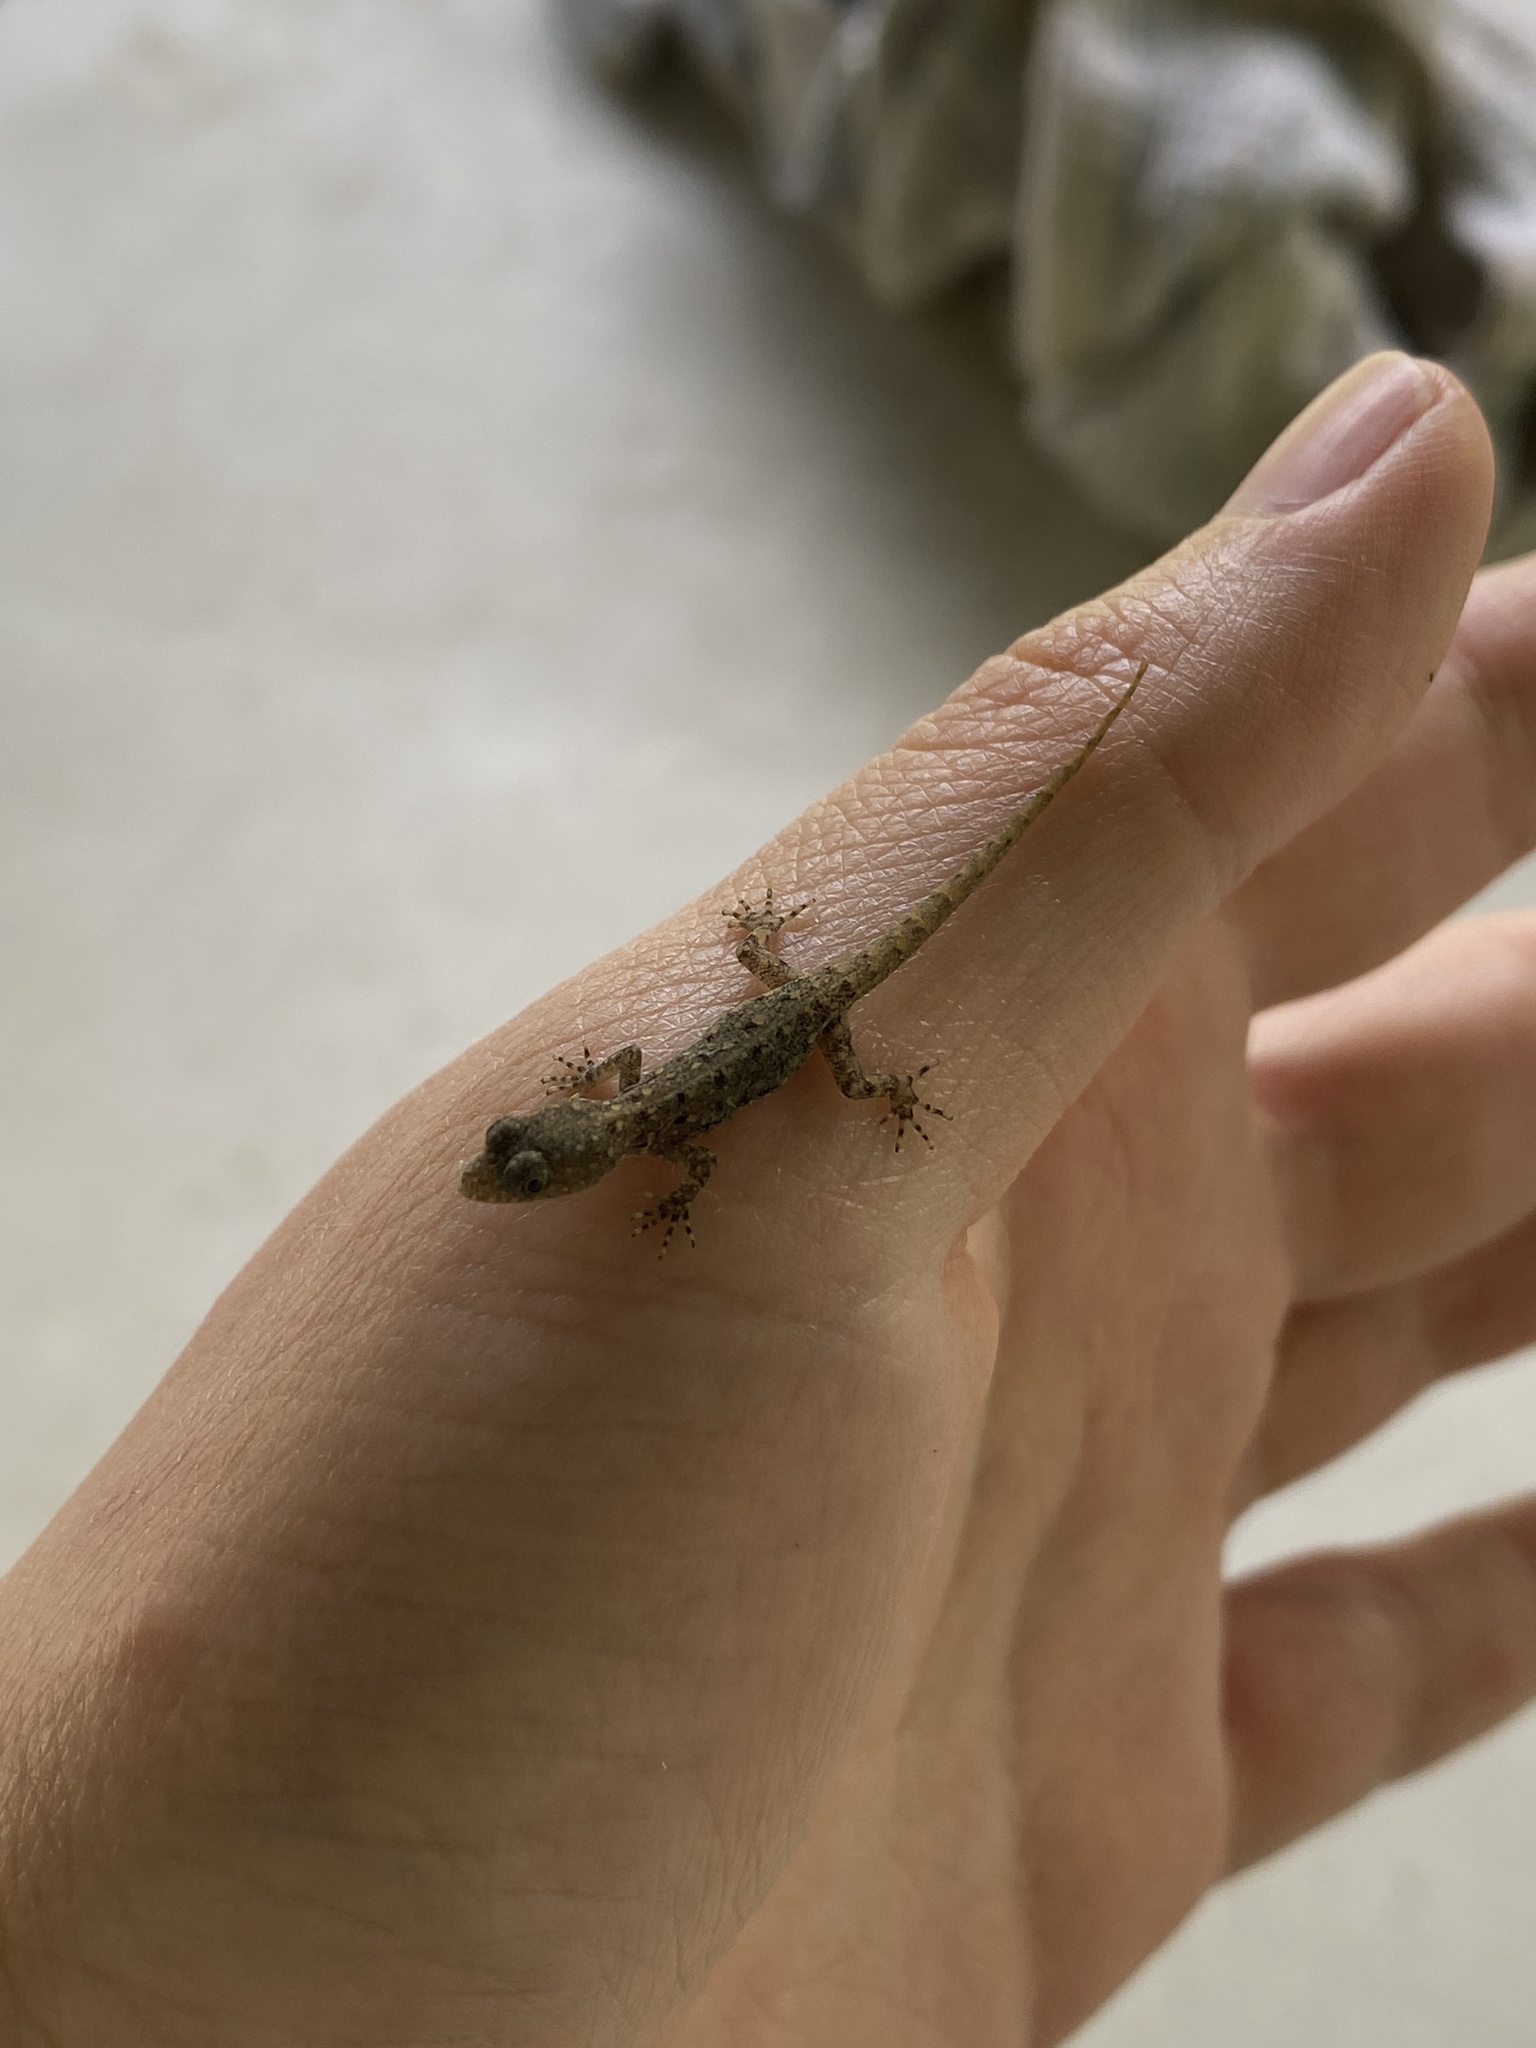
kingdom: Animalia
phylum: Chordata
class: Squamata
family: Sphaerodactylidae
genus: Gonatodes
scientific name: Gonatodes vittatus
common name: Wiegmann's striped gecko
